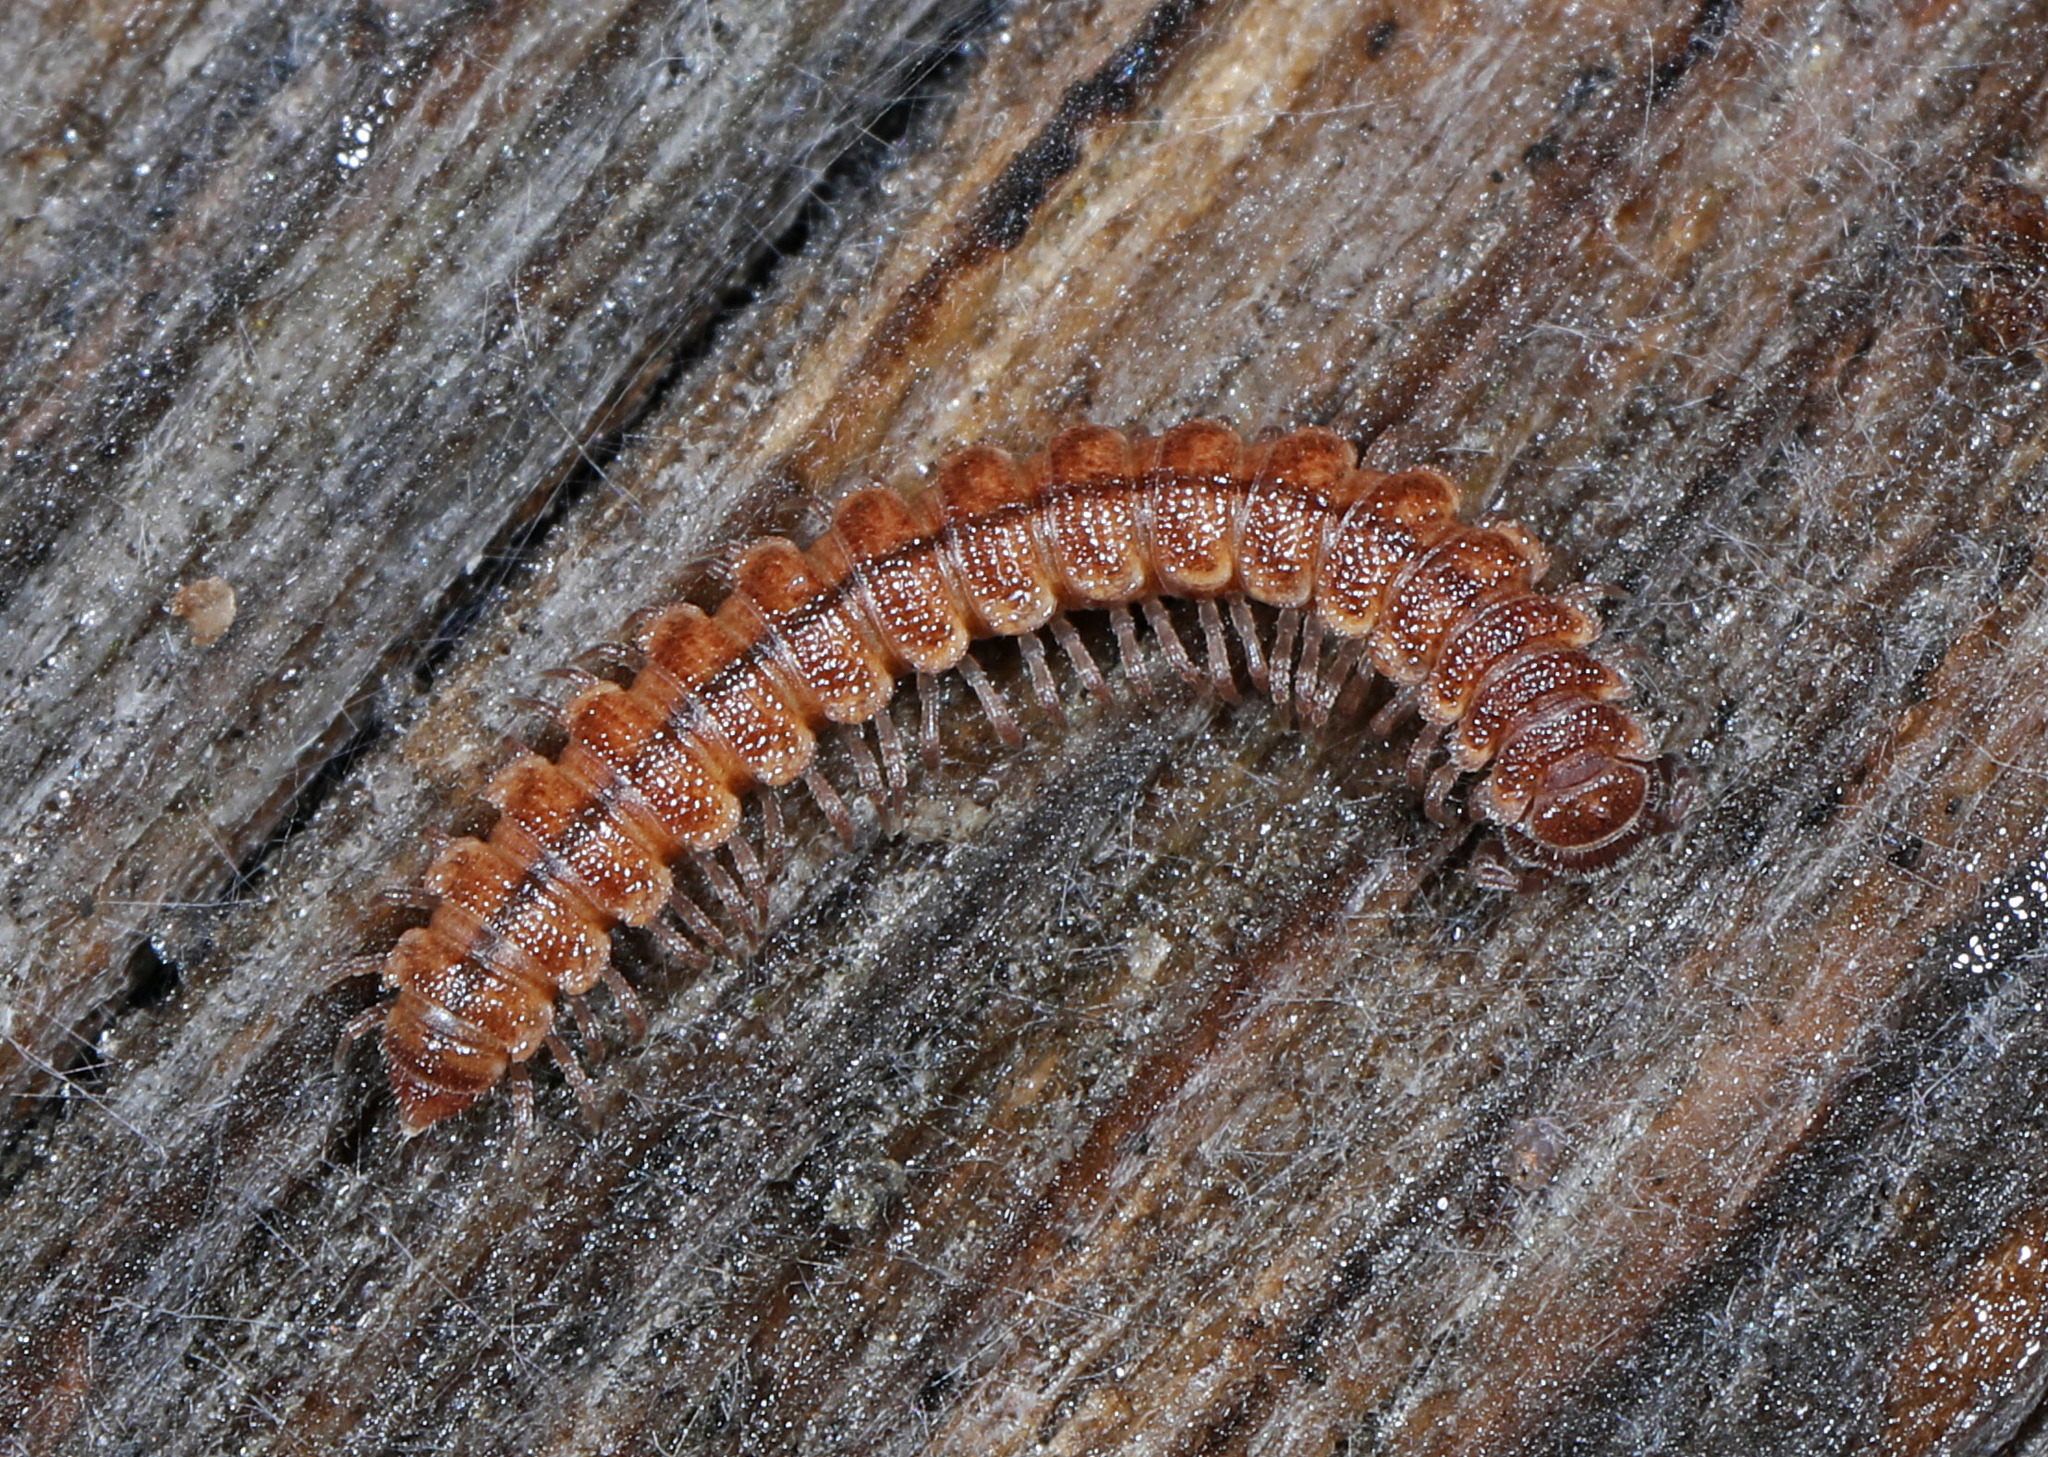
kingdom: Animalia
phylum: Arthropoda
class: Diplopoda
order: Polydesmida
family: Polydesmidae
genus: Scytonotus
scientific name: Scytonotus granulatus
